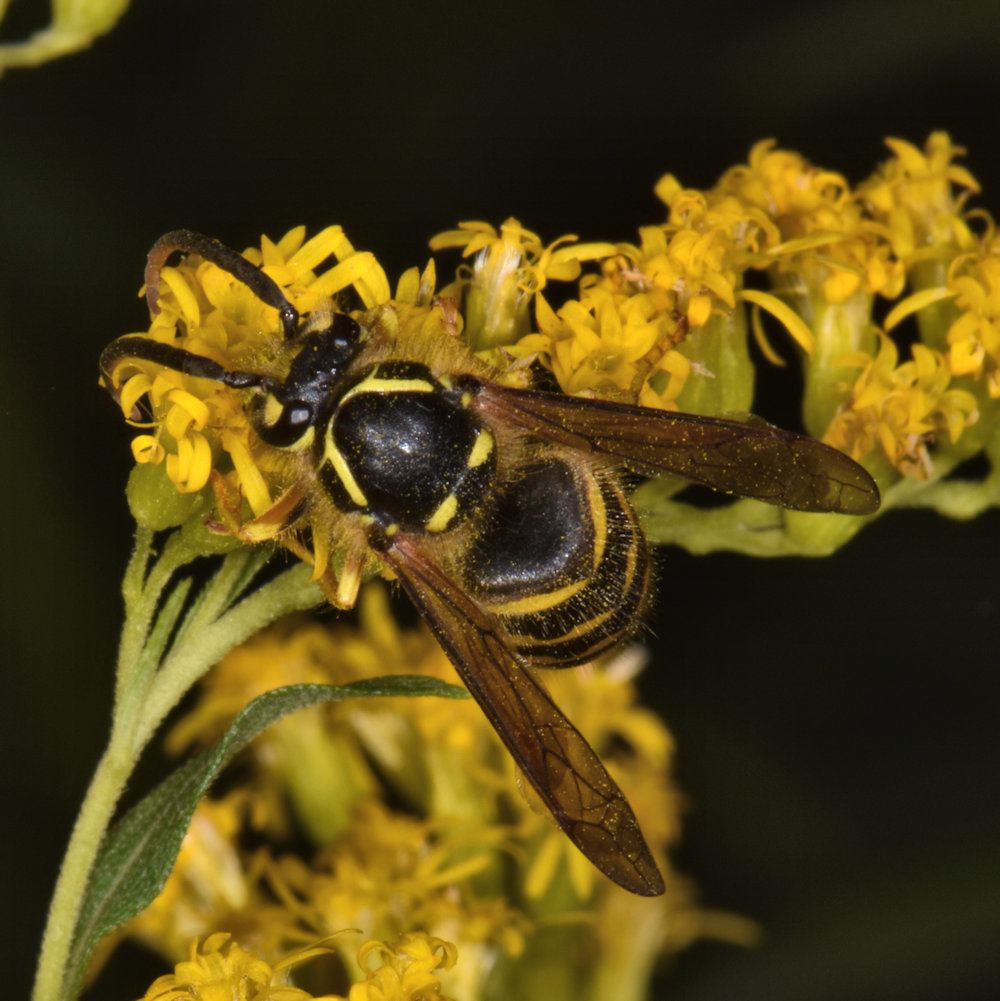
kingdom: Animalia
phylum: Arthropoda
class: Insecta
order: Hymenoptera
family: Vespidae
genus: Dolichovespula
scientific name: Dolichovespula arenaria
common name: Aerial yellowjacket
